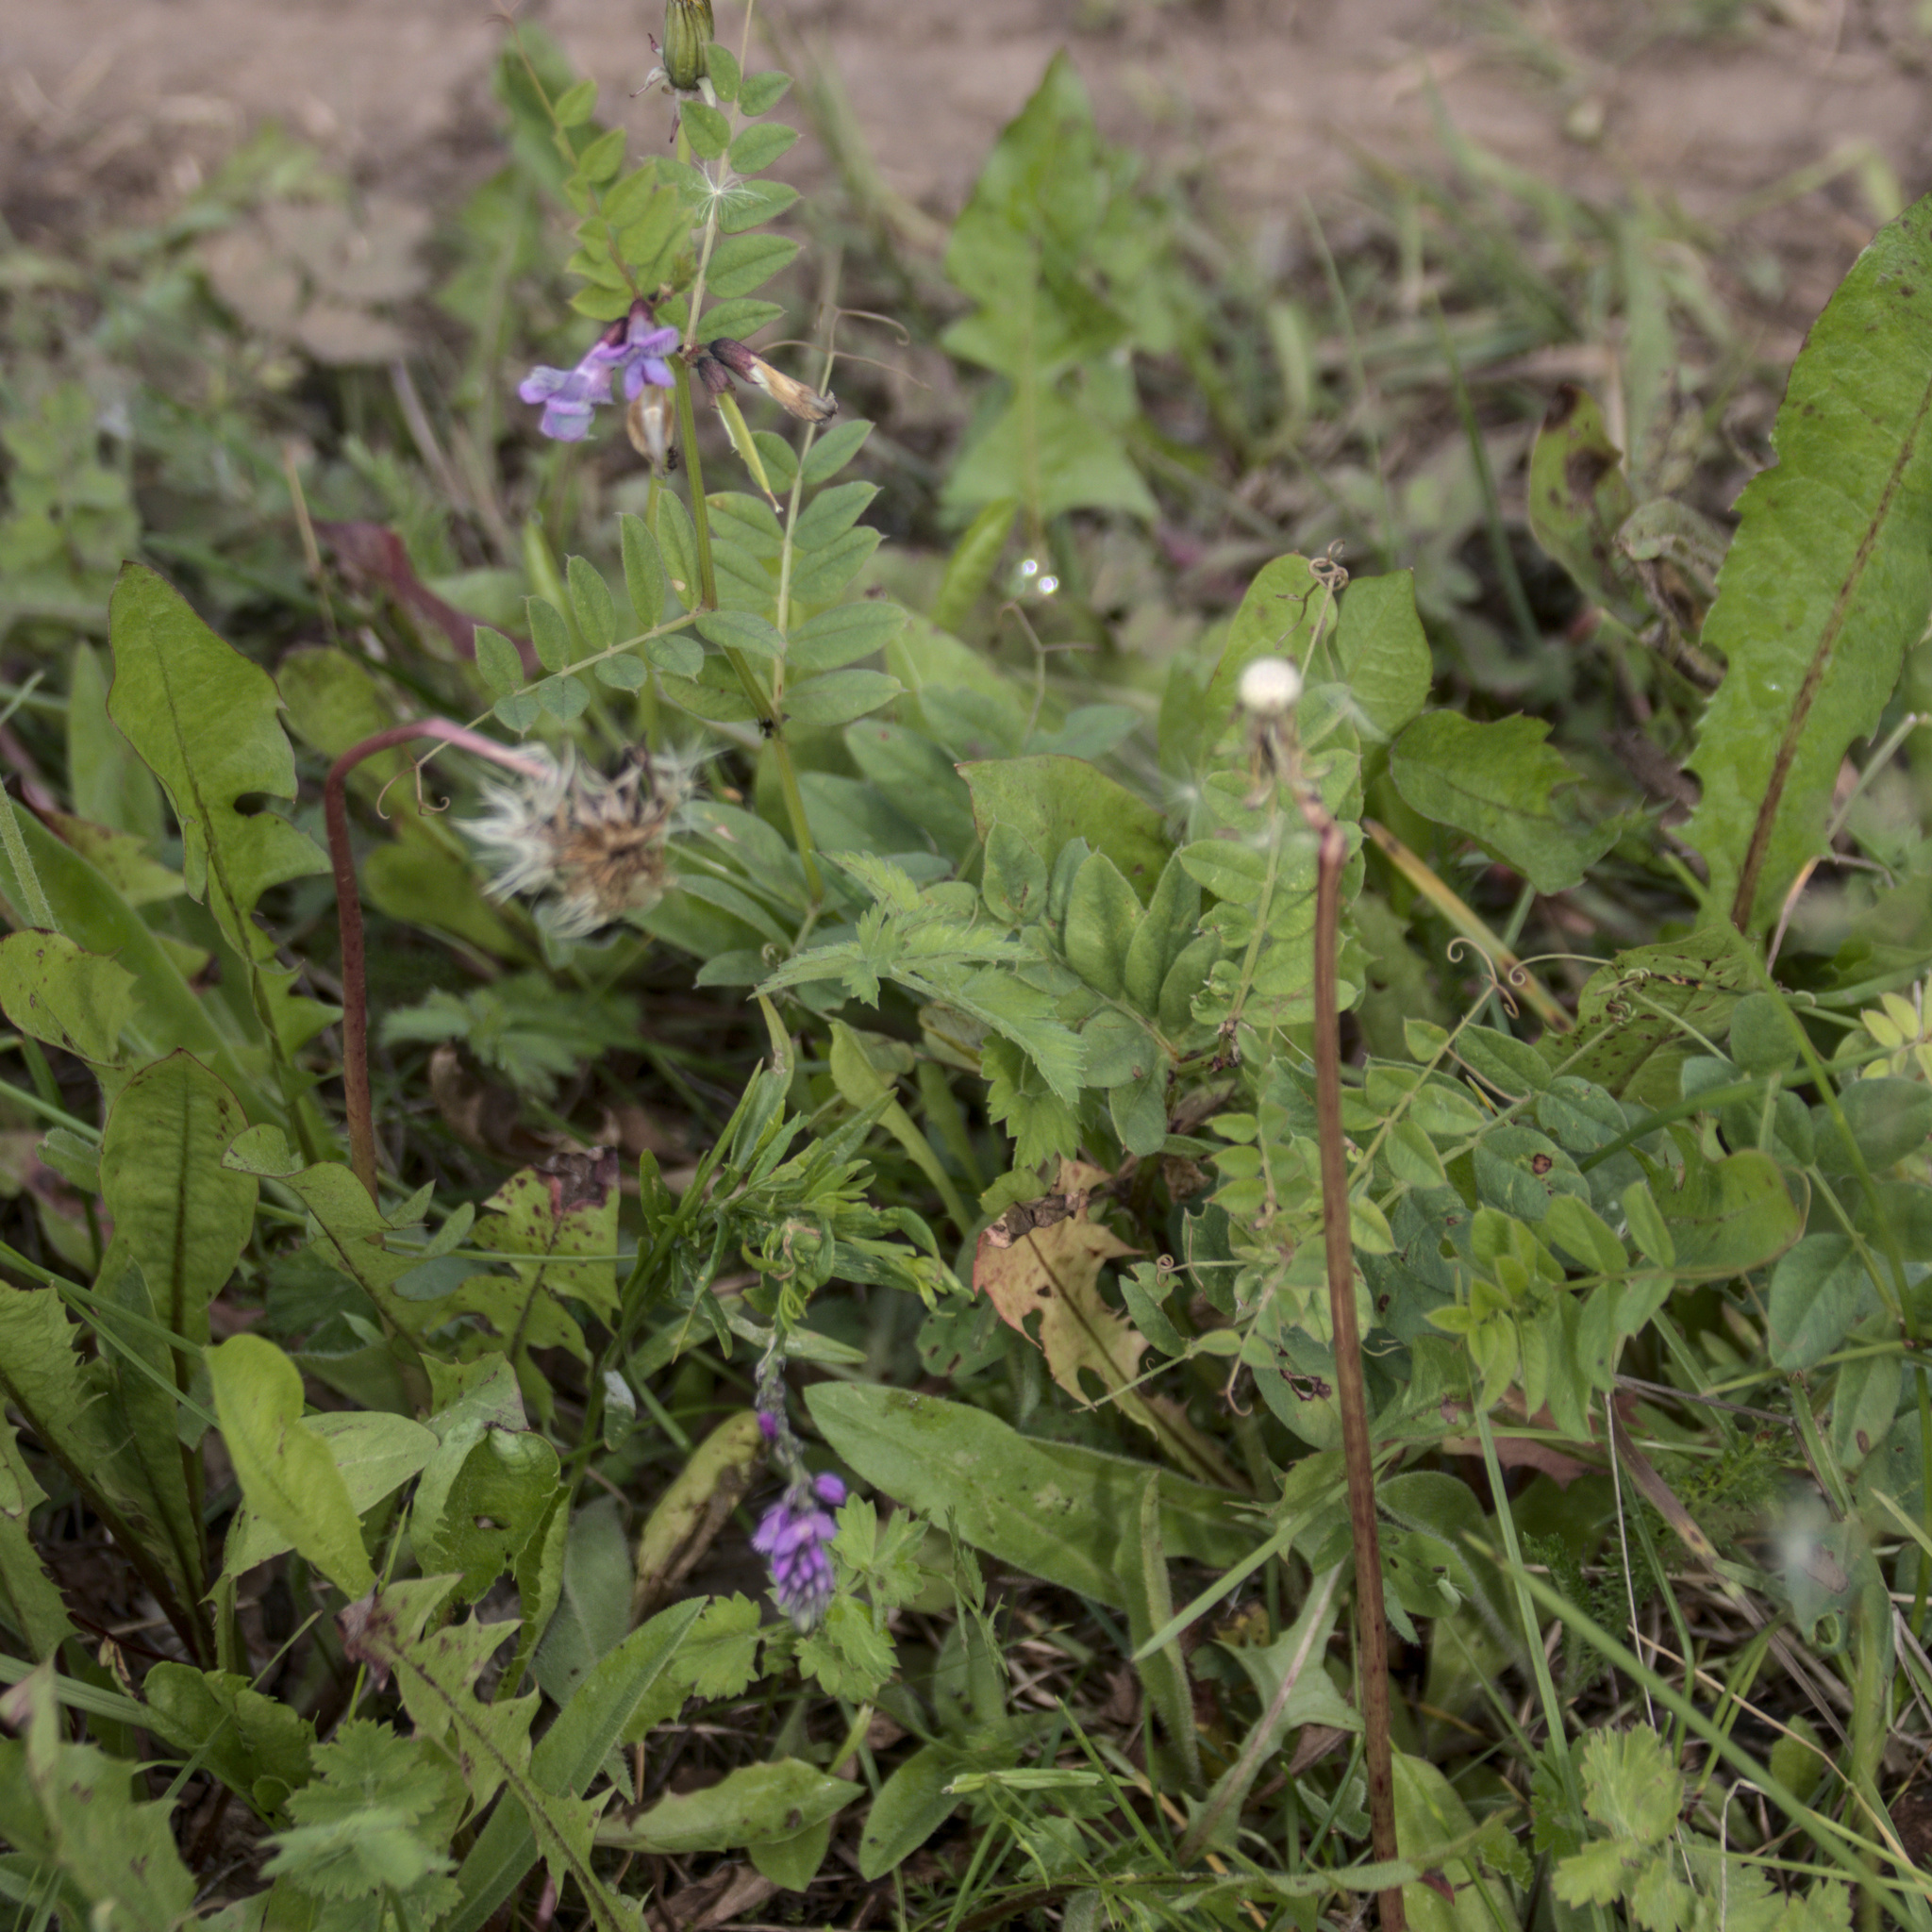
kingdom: Plantae
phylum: Tracheophyta
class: Magnoliopsida
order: Fabales
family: Fabaceae
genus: Vicia
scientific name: Vicia sepium
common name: Bush vetch
